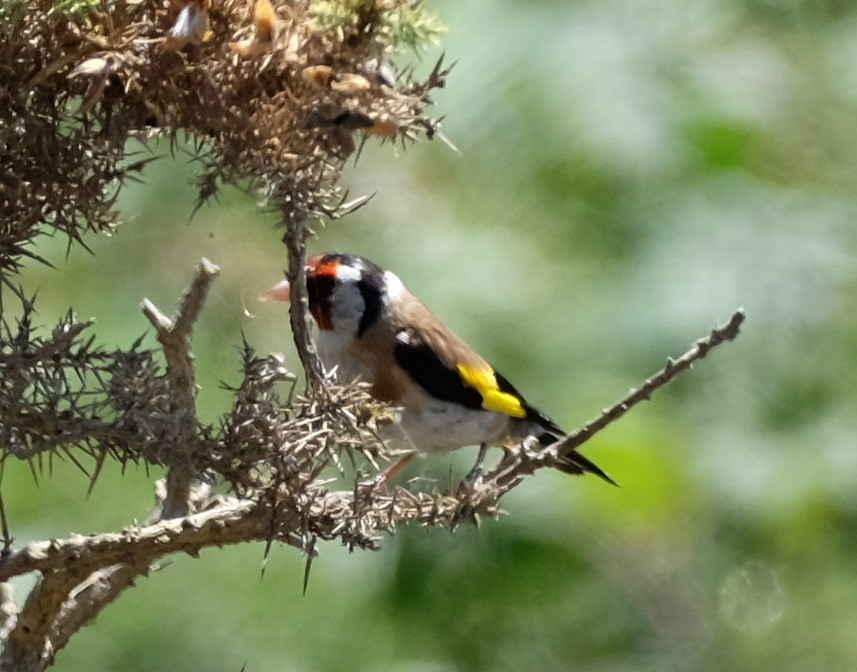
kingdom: Animalia
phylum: Chordata
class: Aves
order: Passeriformes
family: Fringillidae
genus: Carduelis
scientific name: Carduelis carduelis
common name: European goldfinch
